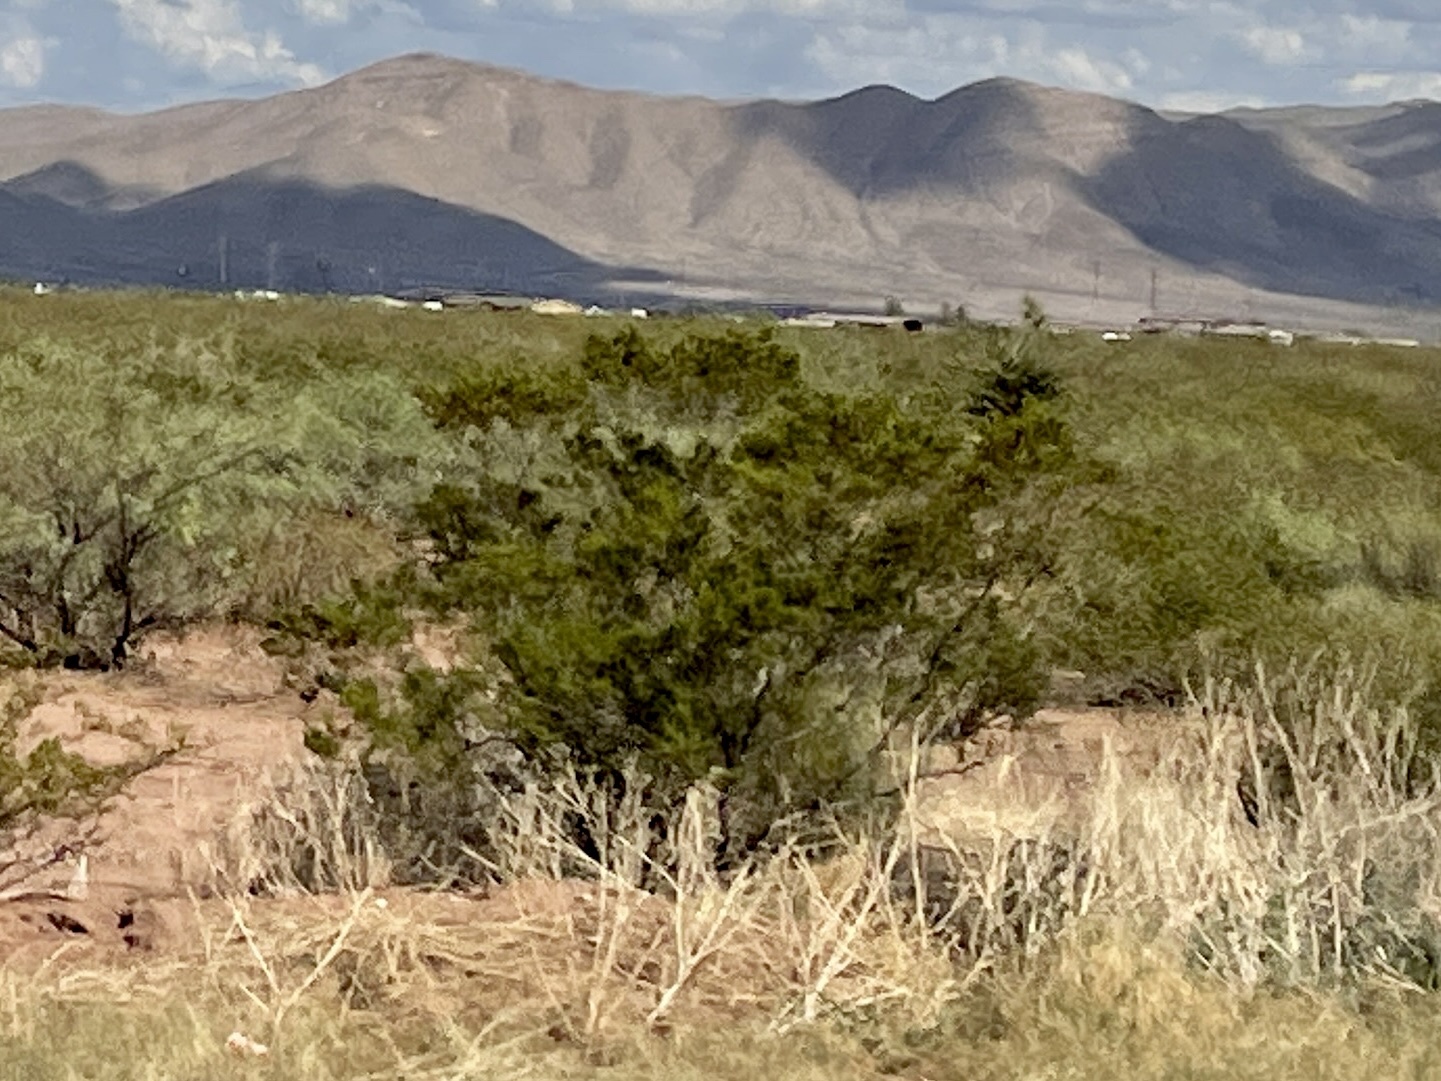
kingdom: Plantae
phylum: Tracheophyta
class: Magnoliopsida
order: Zygophyllales
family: Zygophyllaceae
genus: Larrea
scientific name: Larrea tridentata
